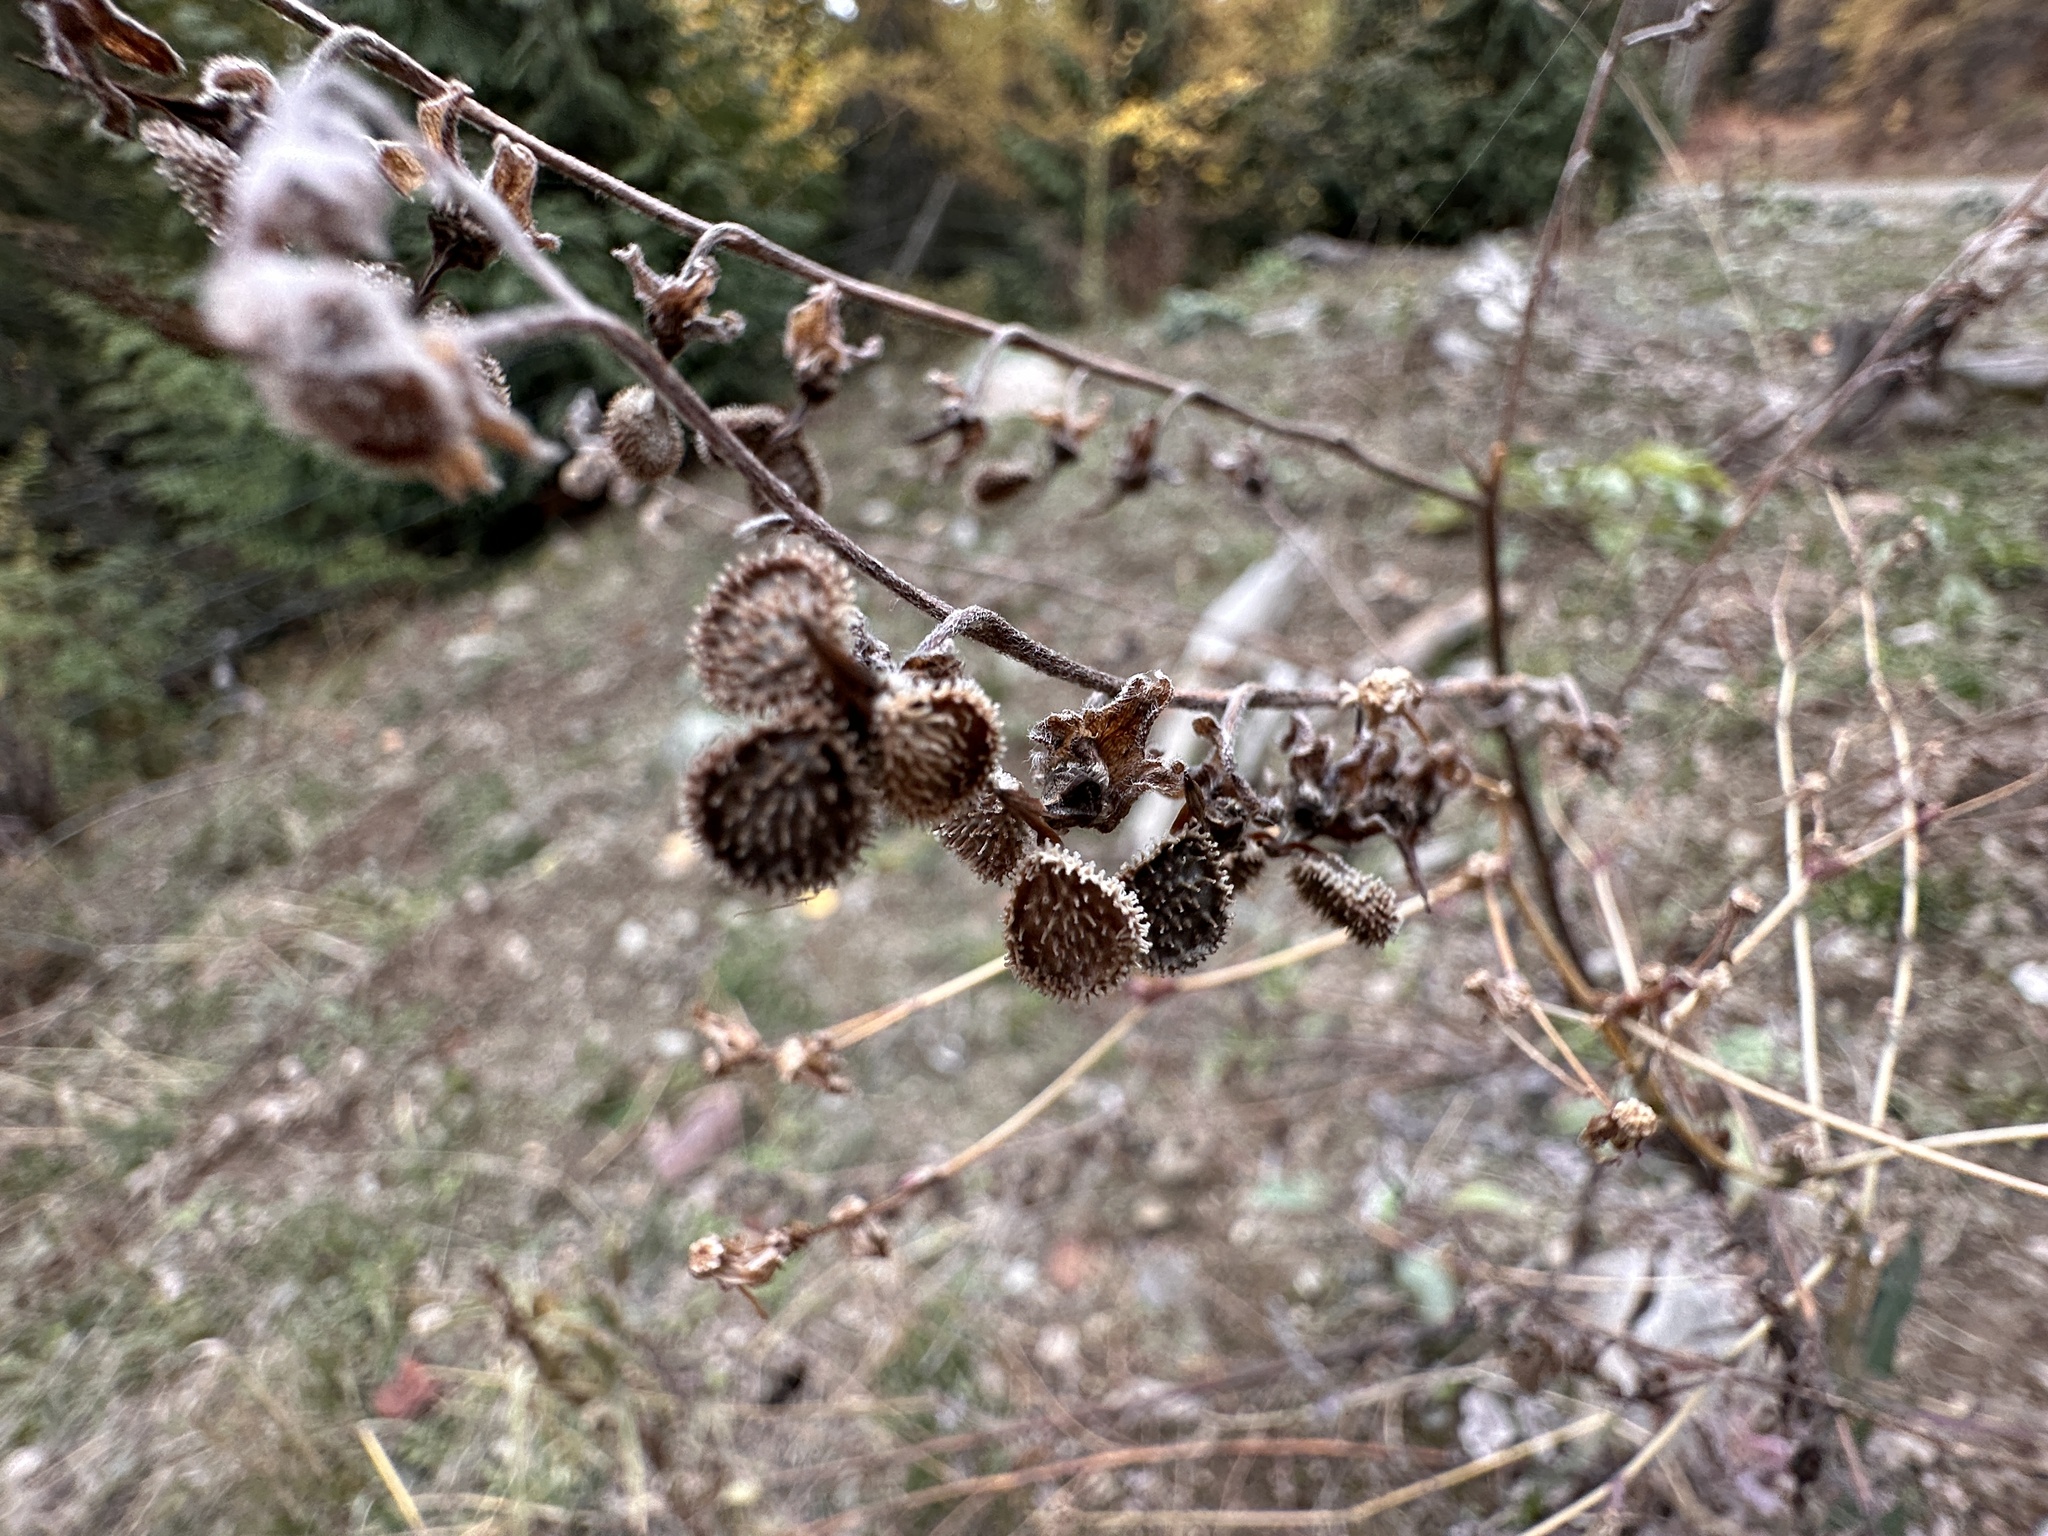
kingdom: Plantae
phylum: Tracheophyta
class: Magnoliopsida
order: Boraginales
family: Boraginaceae
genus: Cynoglossum
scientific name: Cynoglossum officinale
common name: Hound's-tongue
